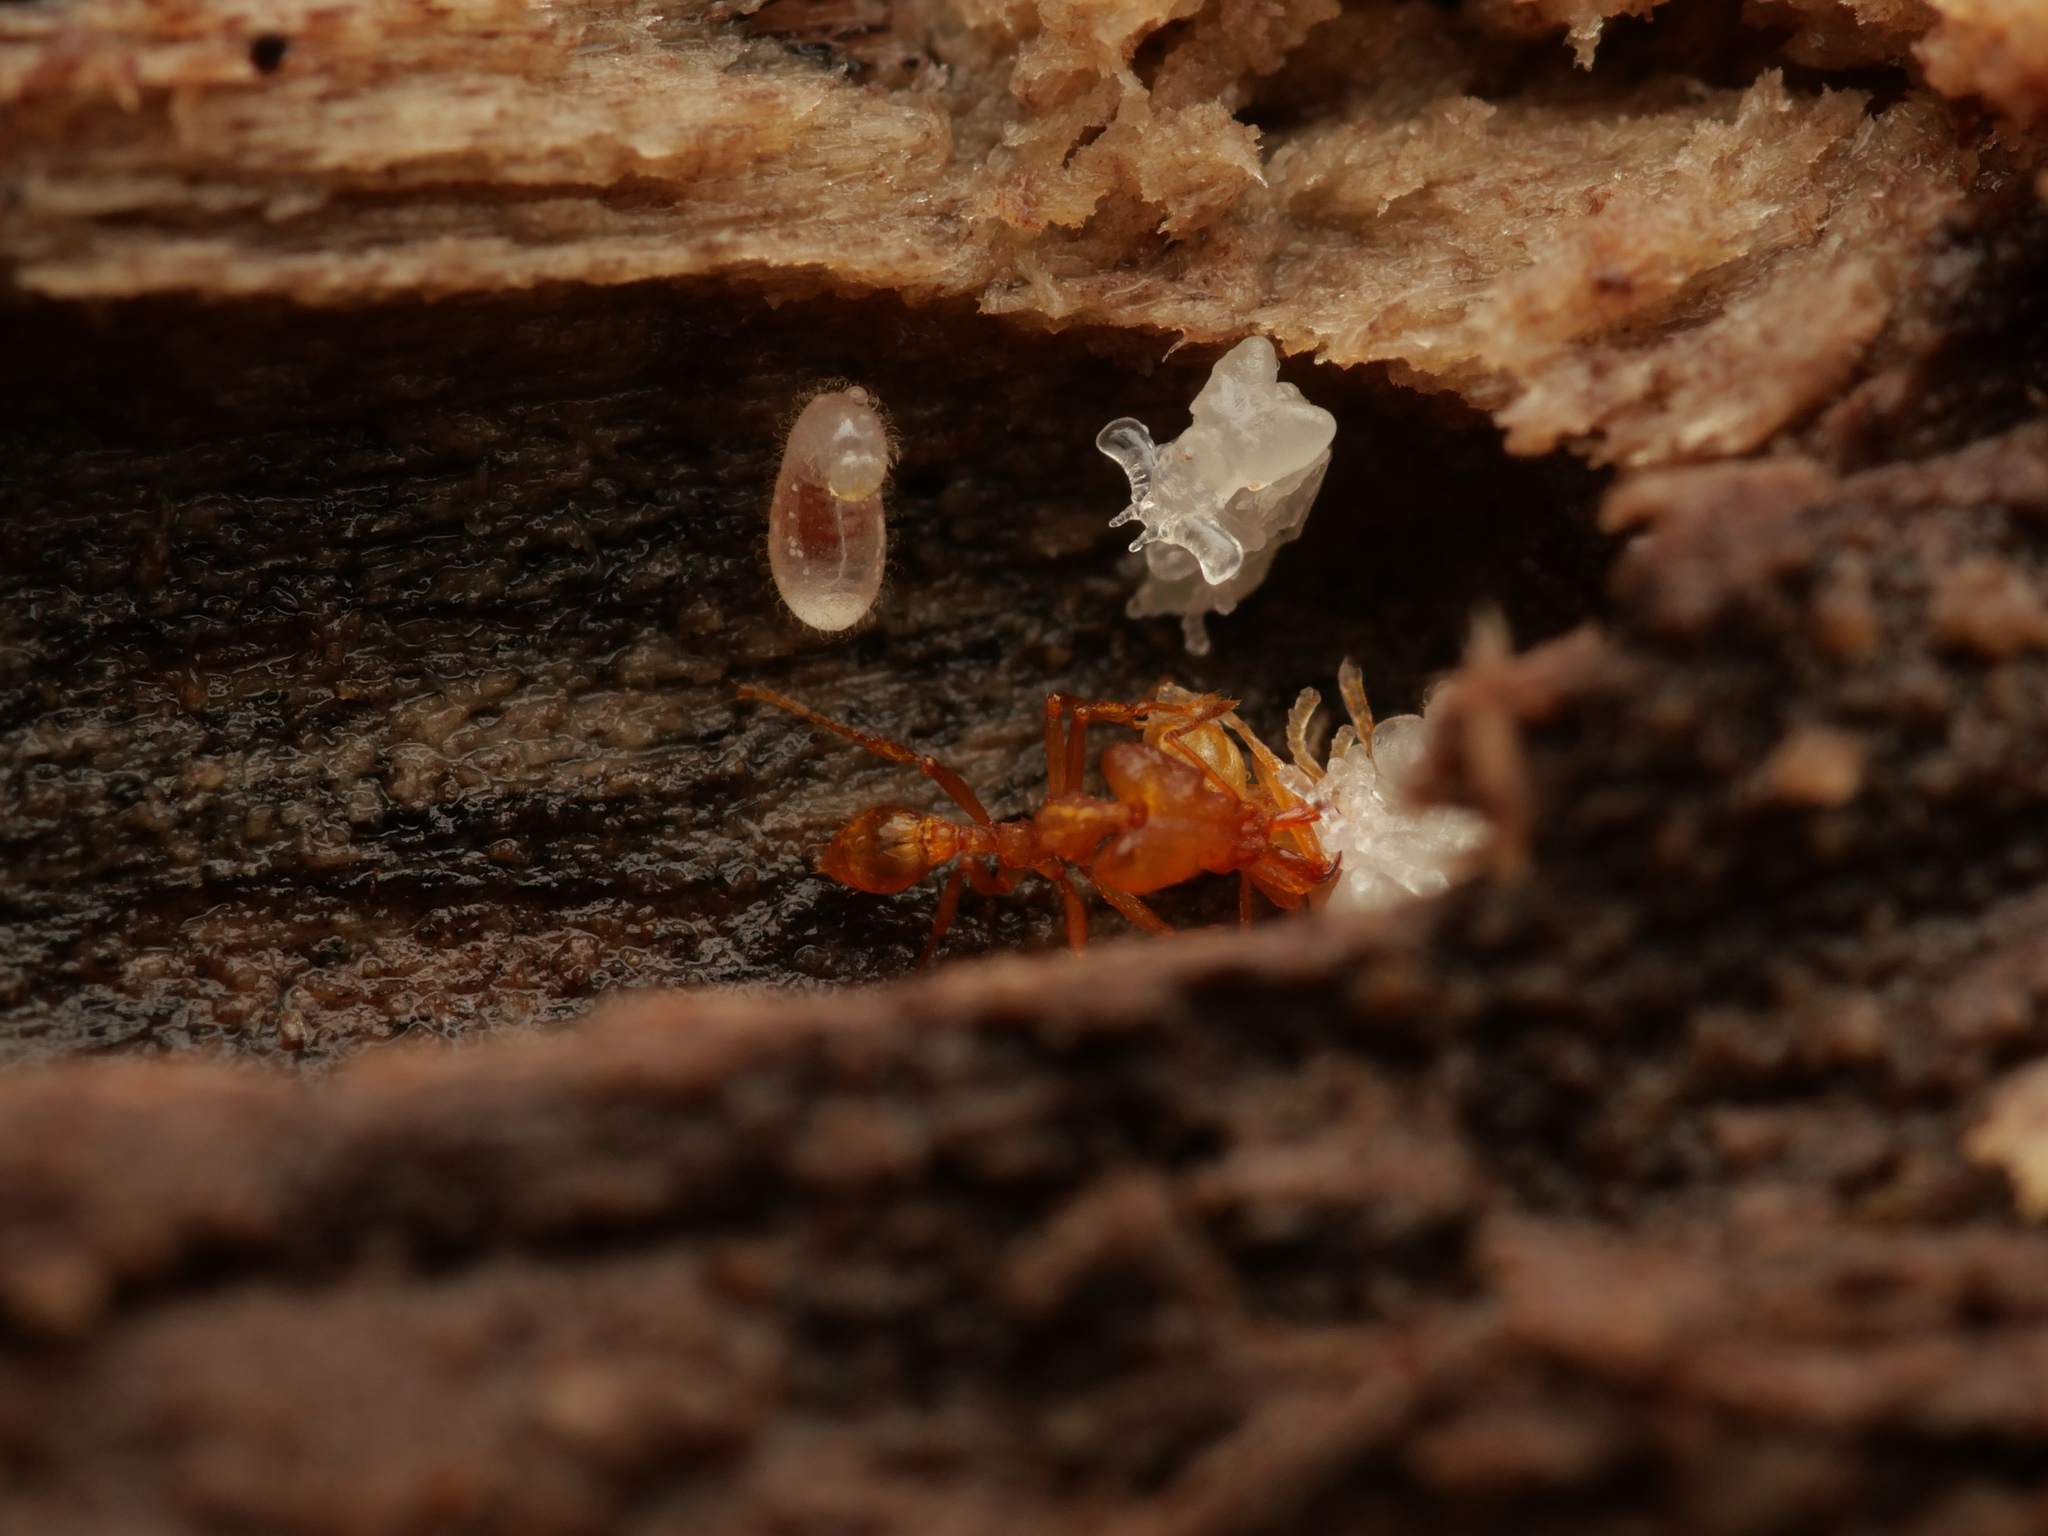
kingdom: Animalia
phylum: Arthropoda
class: Insecta
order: Hymenoptera
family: Formicidae
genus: Strumigenys
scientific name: Strumigenys
